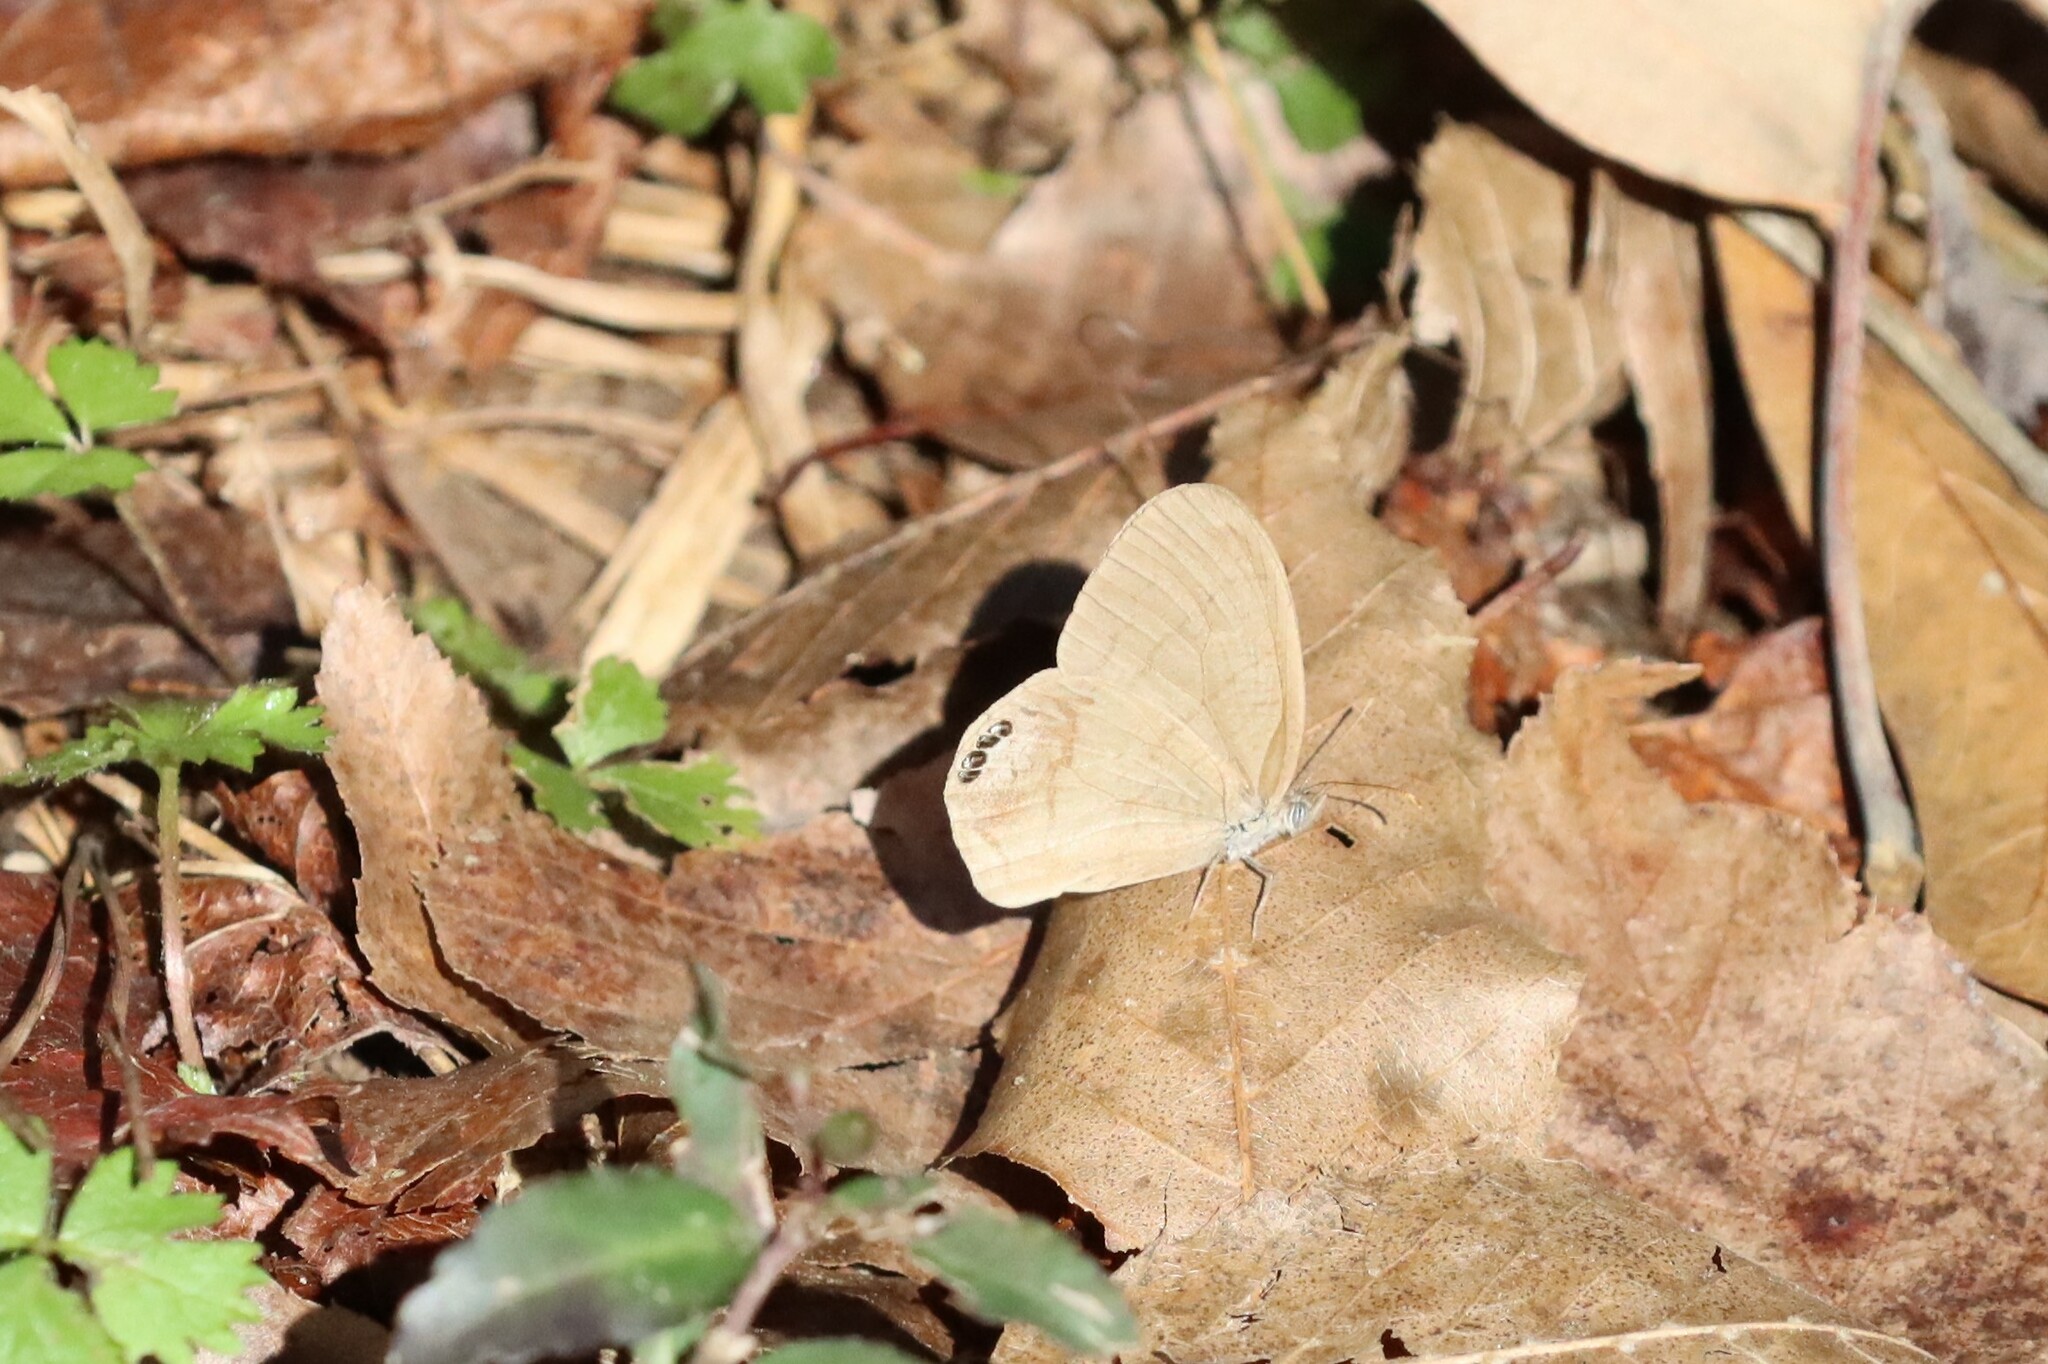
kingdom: Animalia
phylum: Arthropoda
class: Insecta
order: Lepidoptera
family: Nymphalidae
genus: Euptychia
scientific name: Euptychia cornelius
